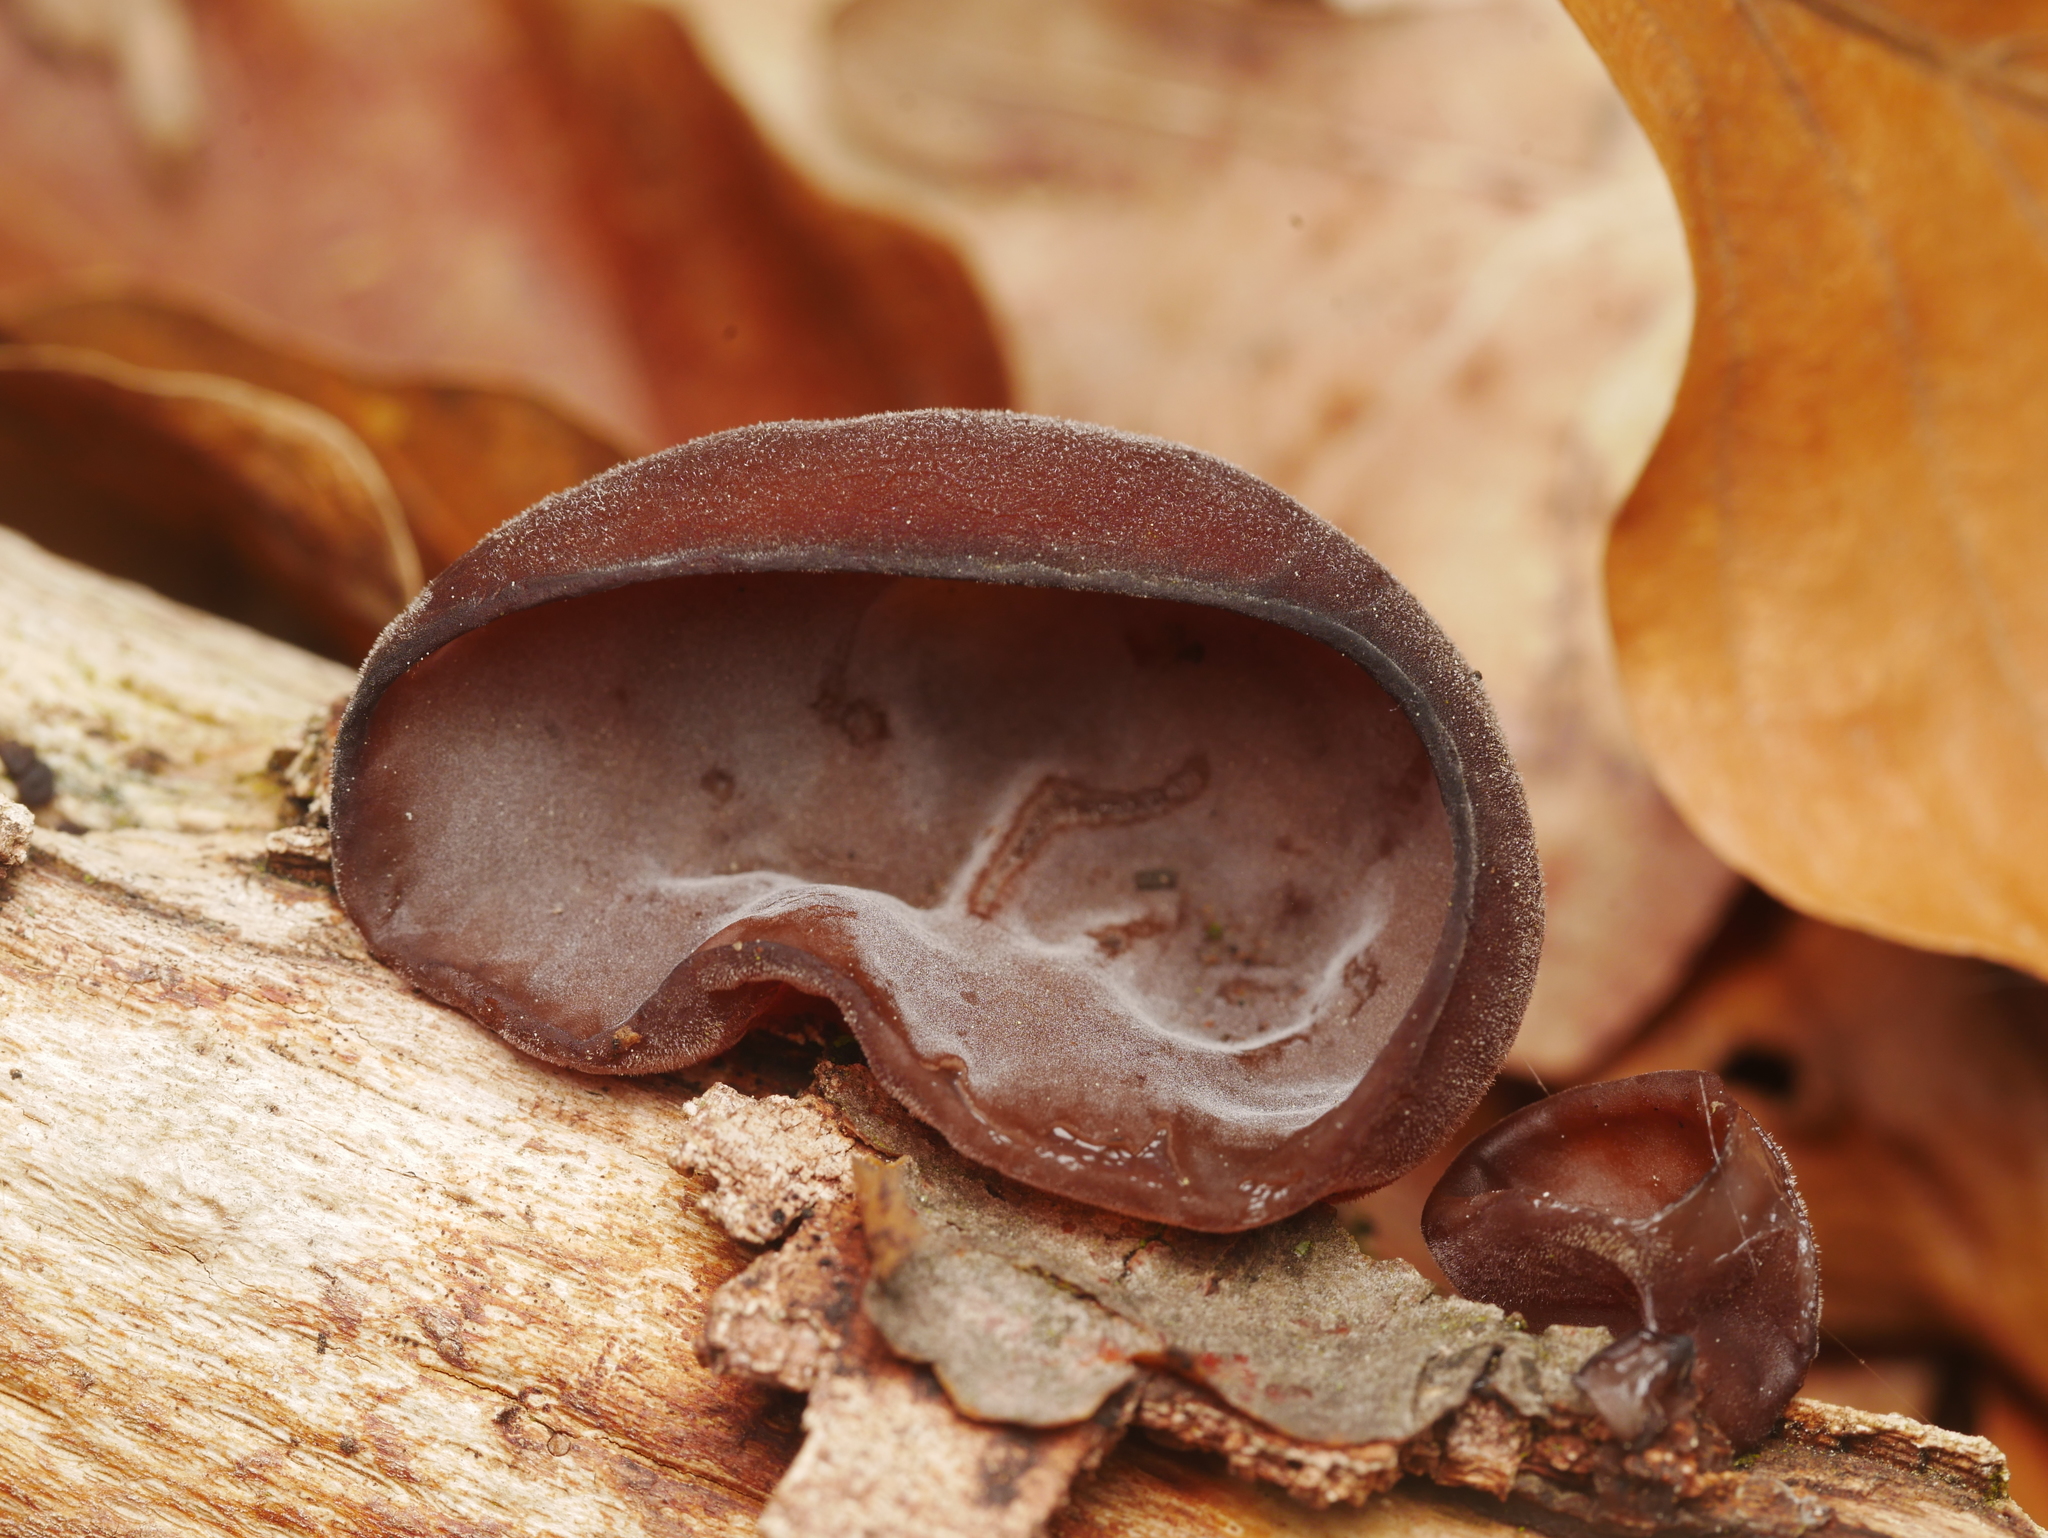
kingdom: Fungi
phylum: Basidiomycota
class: Agaricomycetes
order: Auriculariales
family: Auriculariaceae
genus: Auricularia
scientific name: Auricularia auricula-judae
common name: Jelly ear
